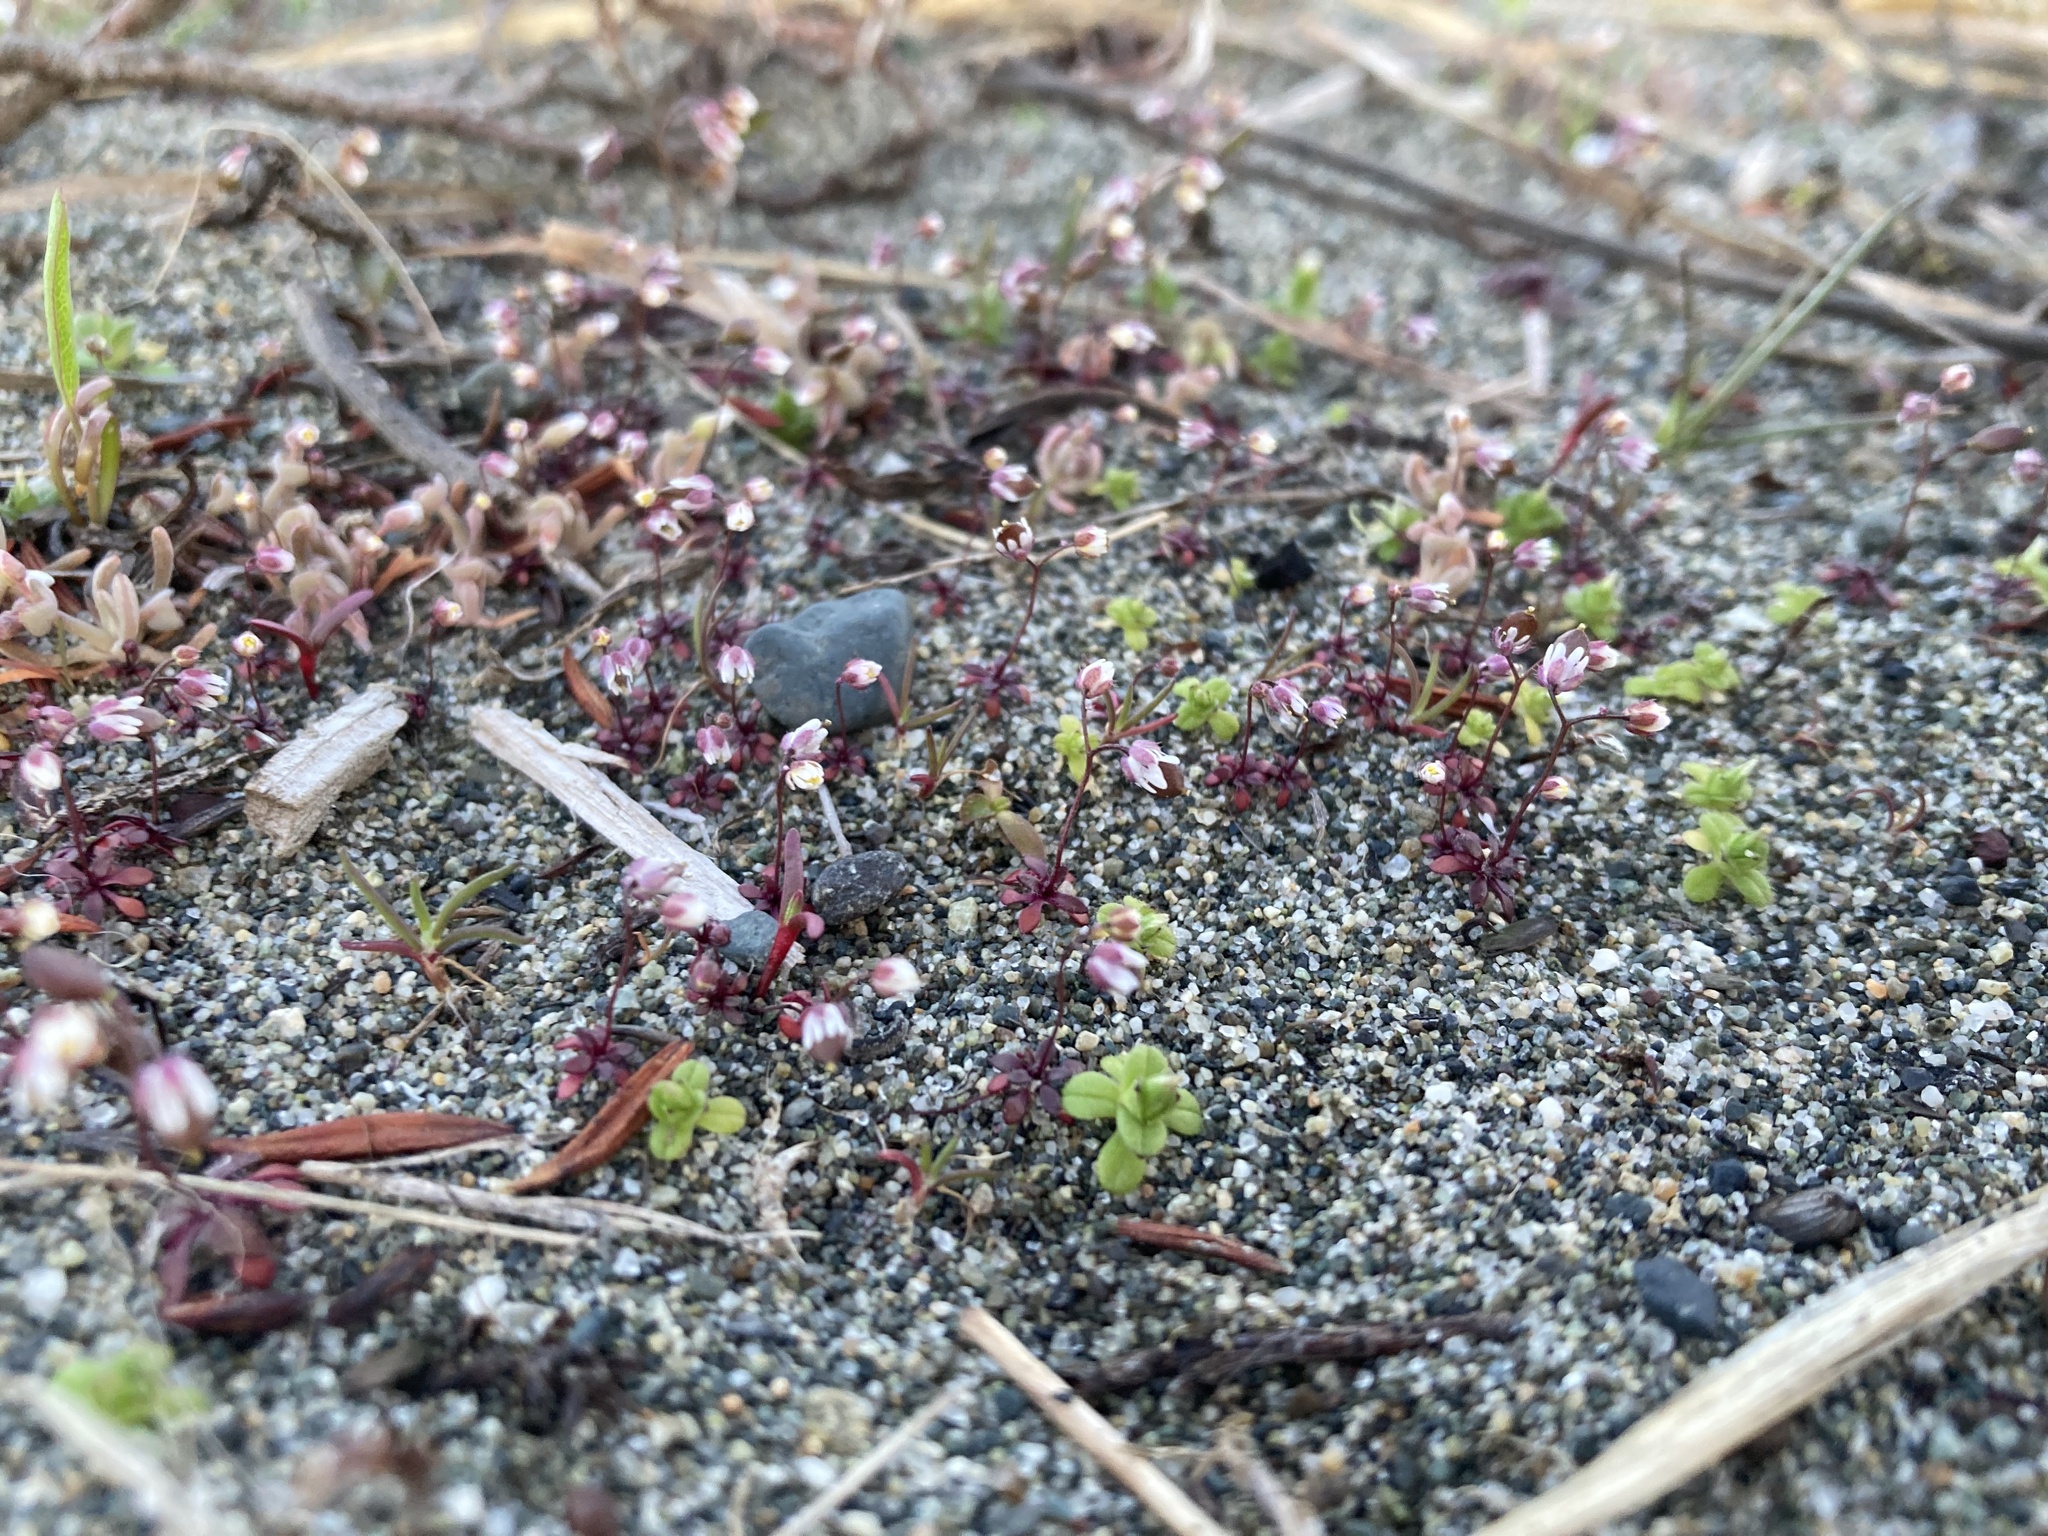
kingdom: Plantae
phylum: Tracheophyta
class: Magnoliopsida
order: Brassicales
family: Brassicaceae
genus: Draba
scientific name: Draba verna
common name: Spring draba
